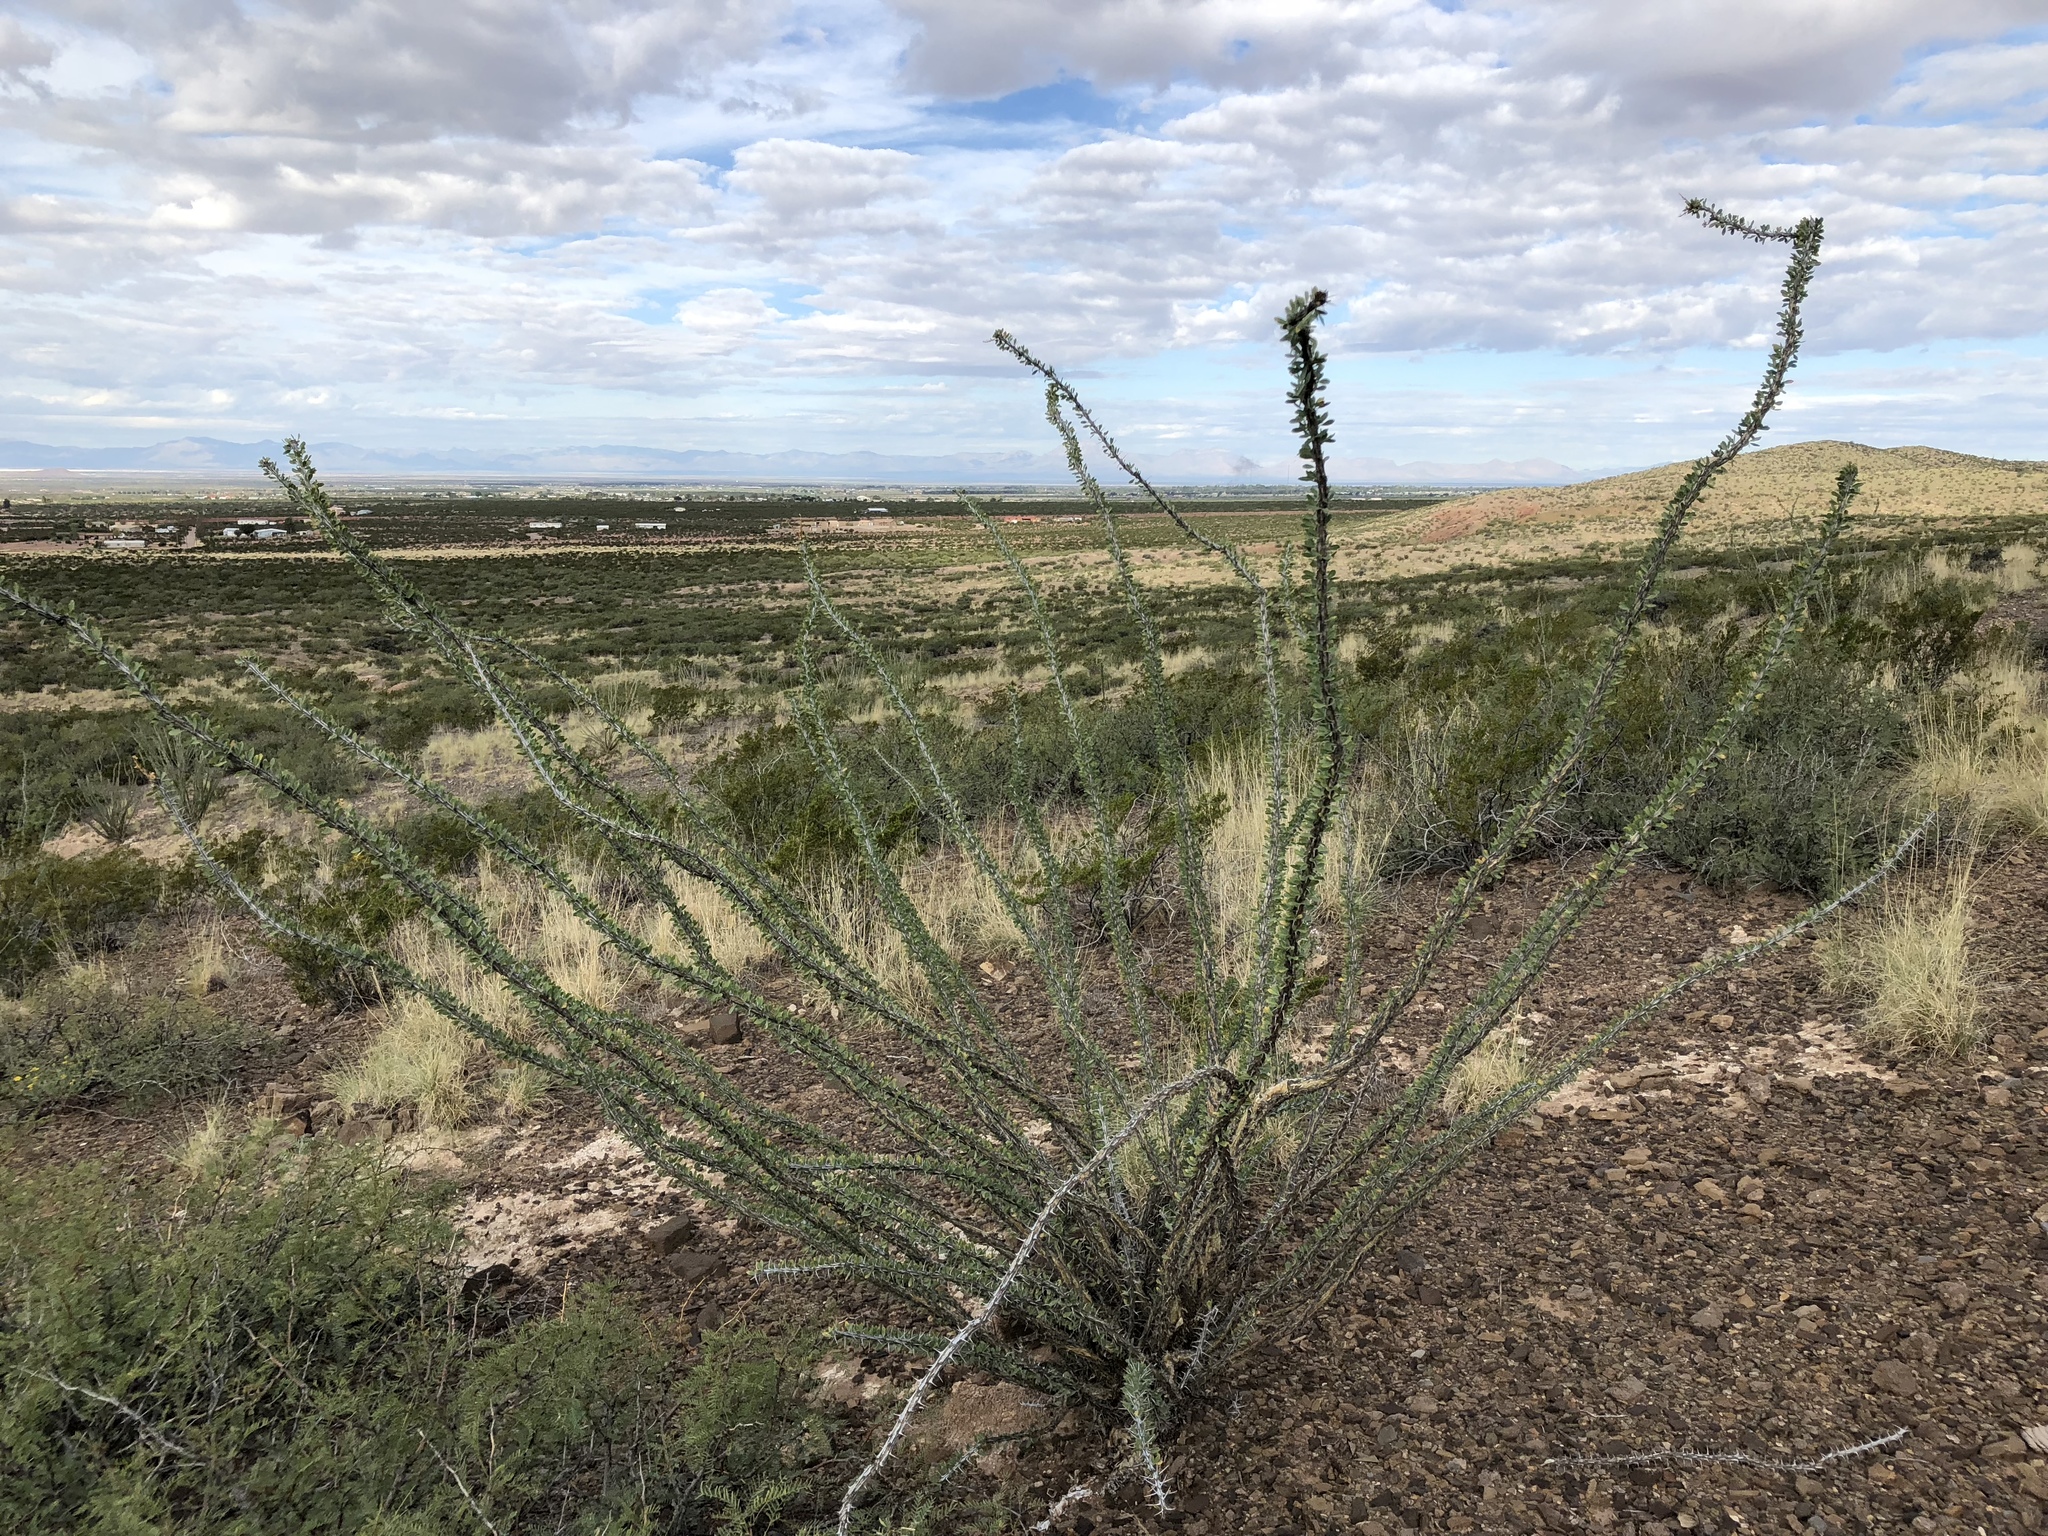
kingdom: Plantae
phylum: Tracheophyta
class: Magnoliopsida
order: Ericales
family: Fouquieriaceae
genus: Fouquieria
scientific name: Fouquieria splendens
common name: Vine-cactus
